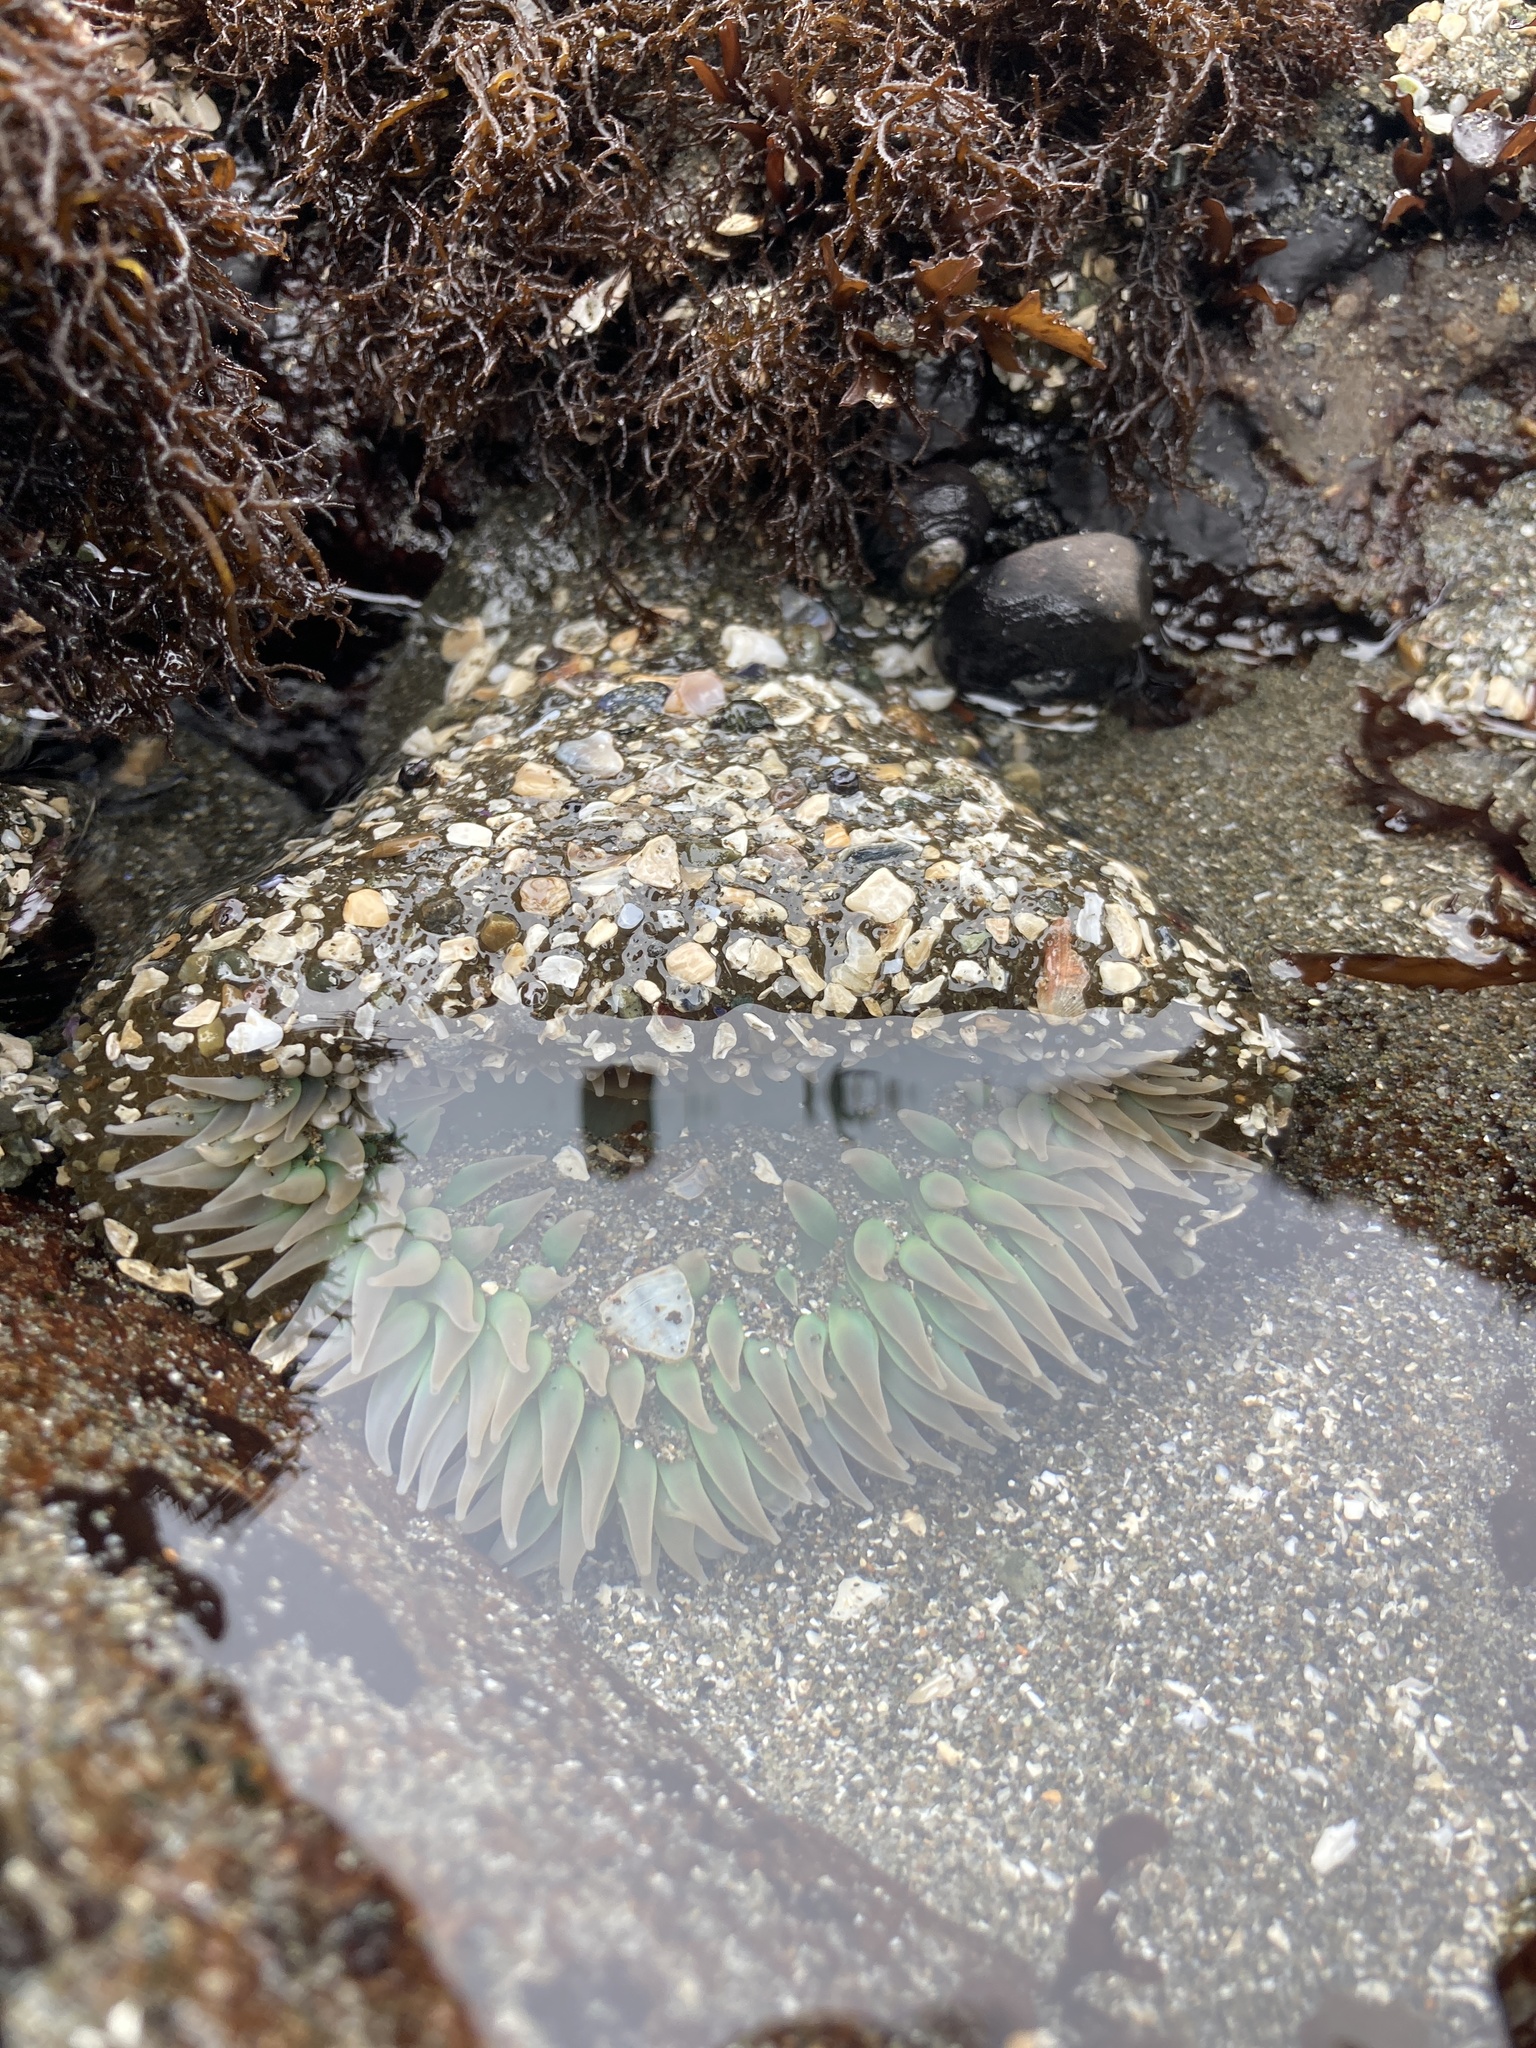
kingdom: Animalia
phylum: Cnidaria
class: Anthozoa
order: Actiniaria
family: Actiniidae
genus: Anthopleura
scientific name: Anthopleura xanthogrammica
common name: Giant green anemone
